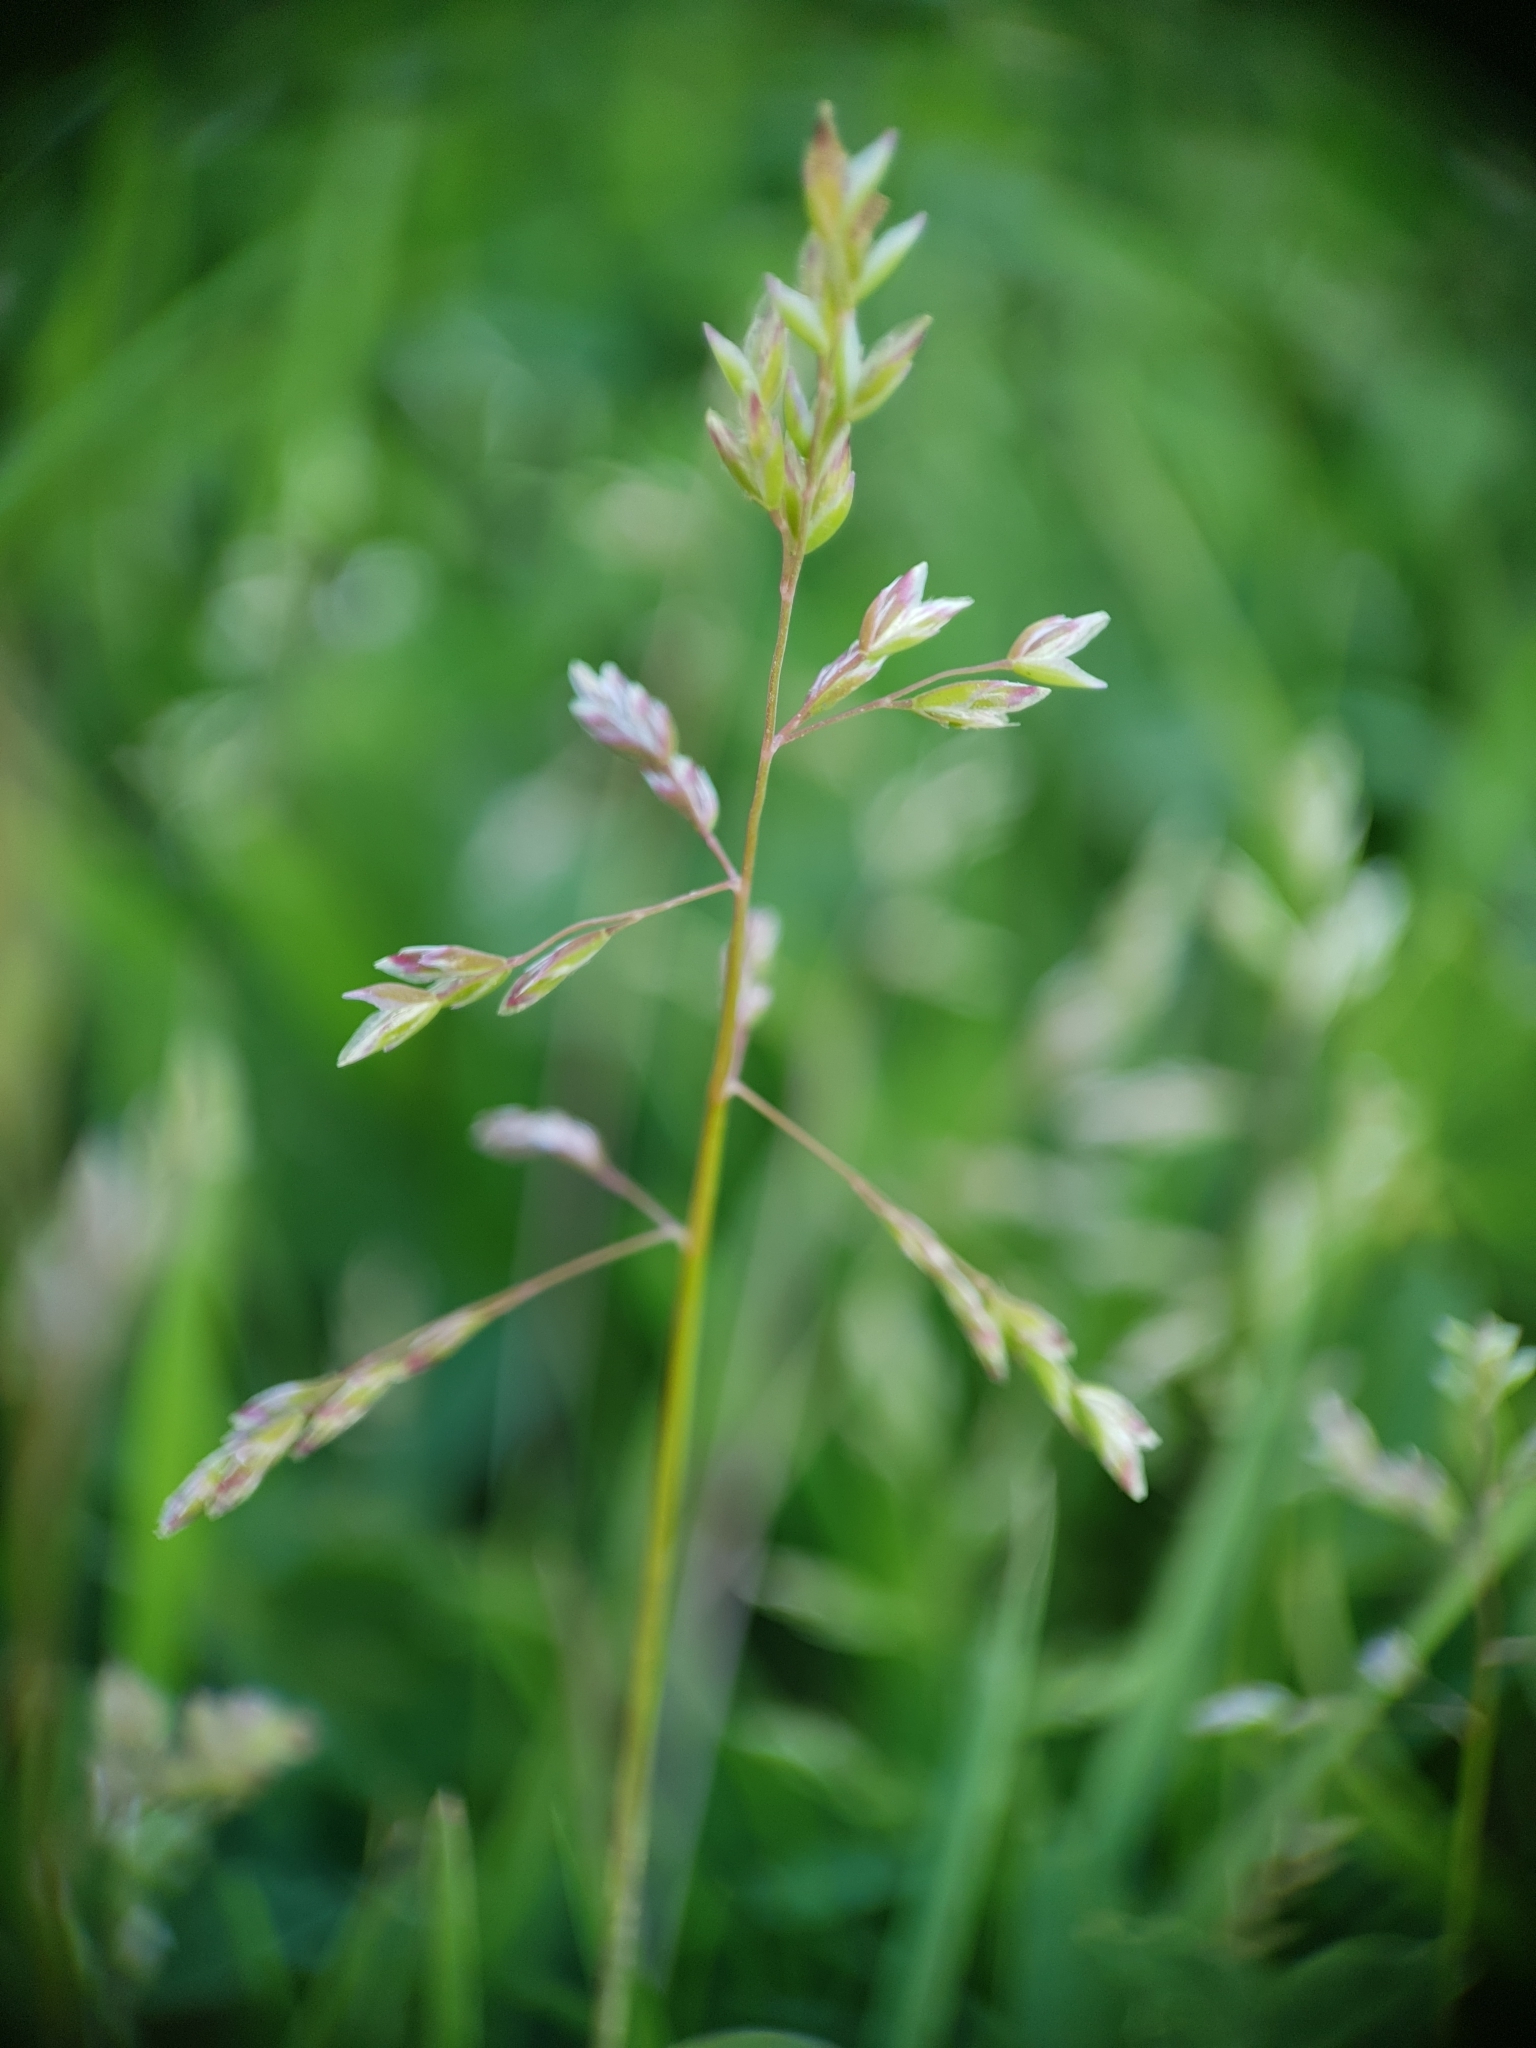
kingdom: Plantae
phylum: Tracheophyta
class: Liliopsida
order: Poales
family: Poaceae
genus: Poa
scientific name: Poa annua
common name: Annual bluegrass
